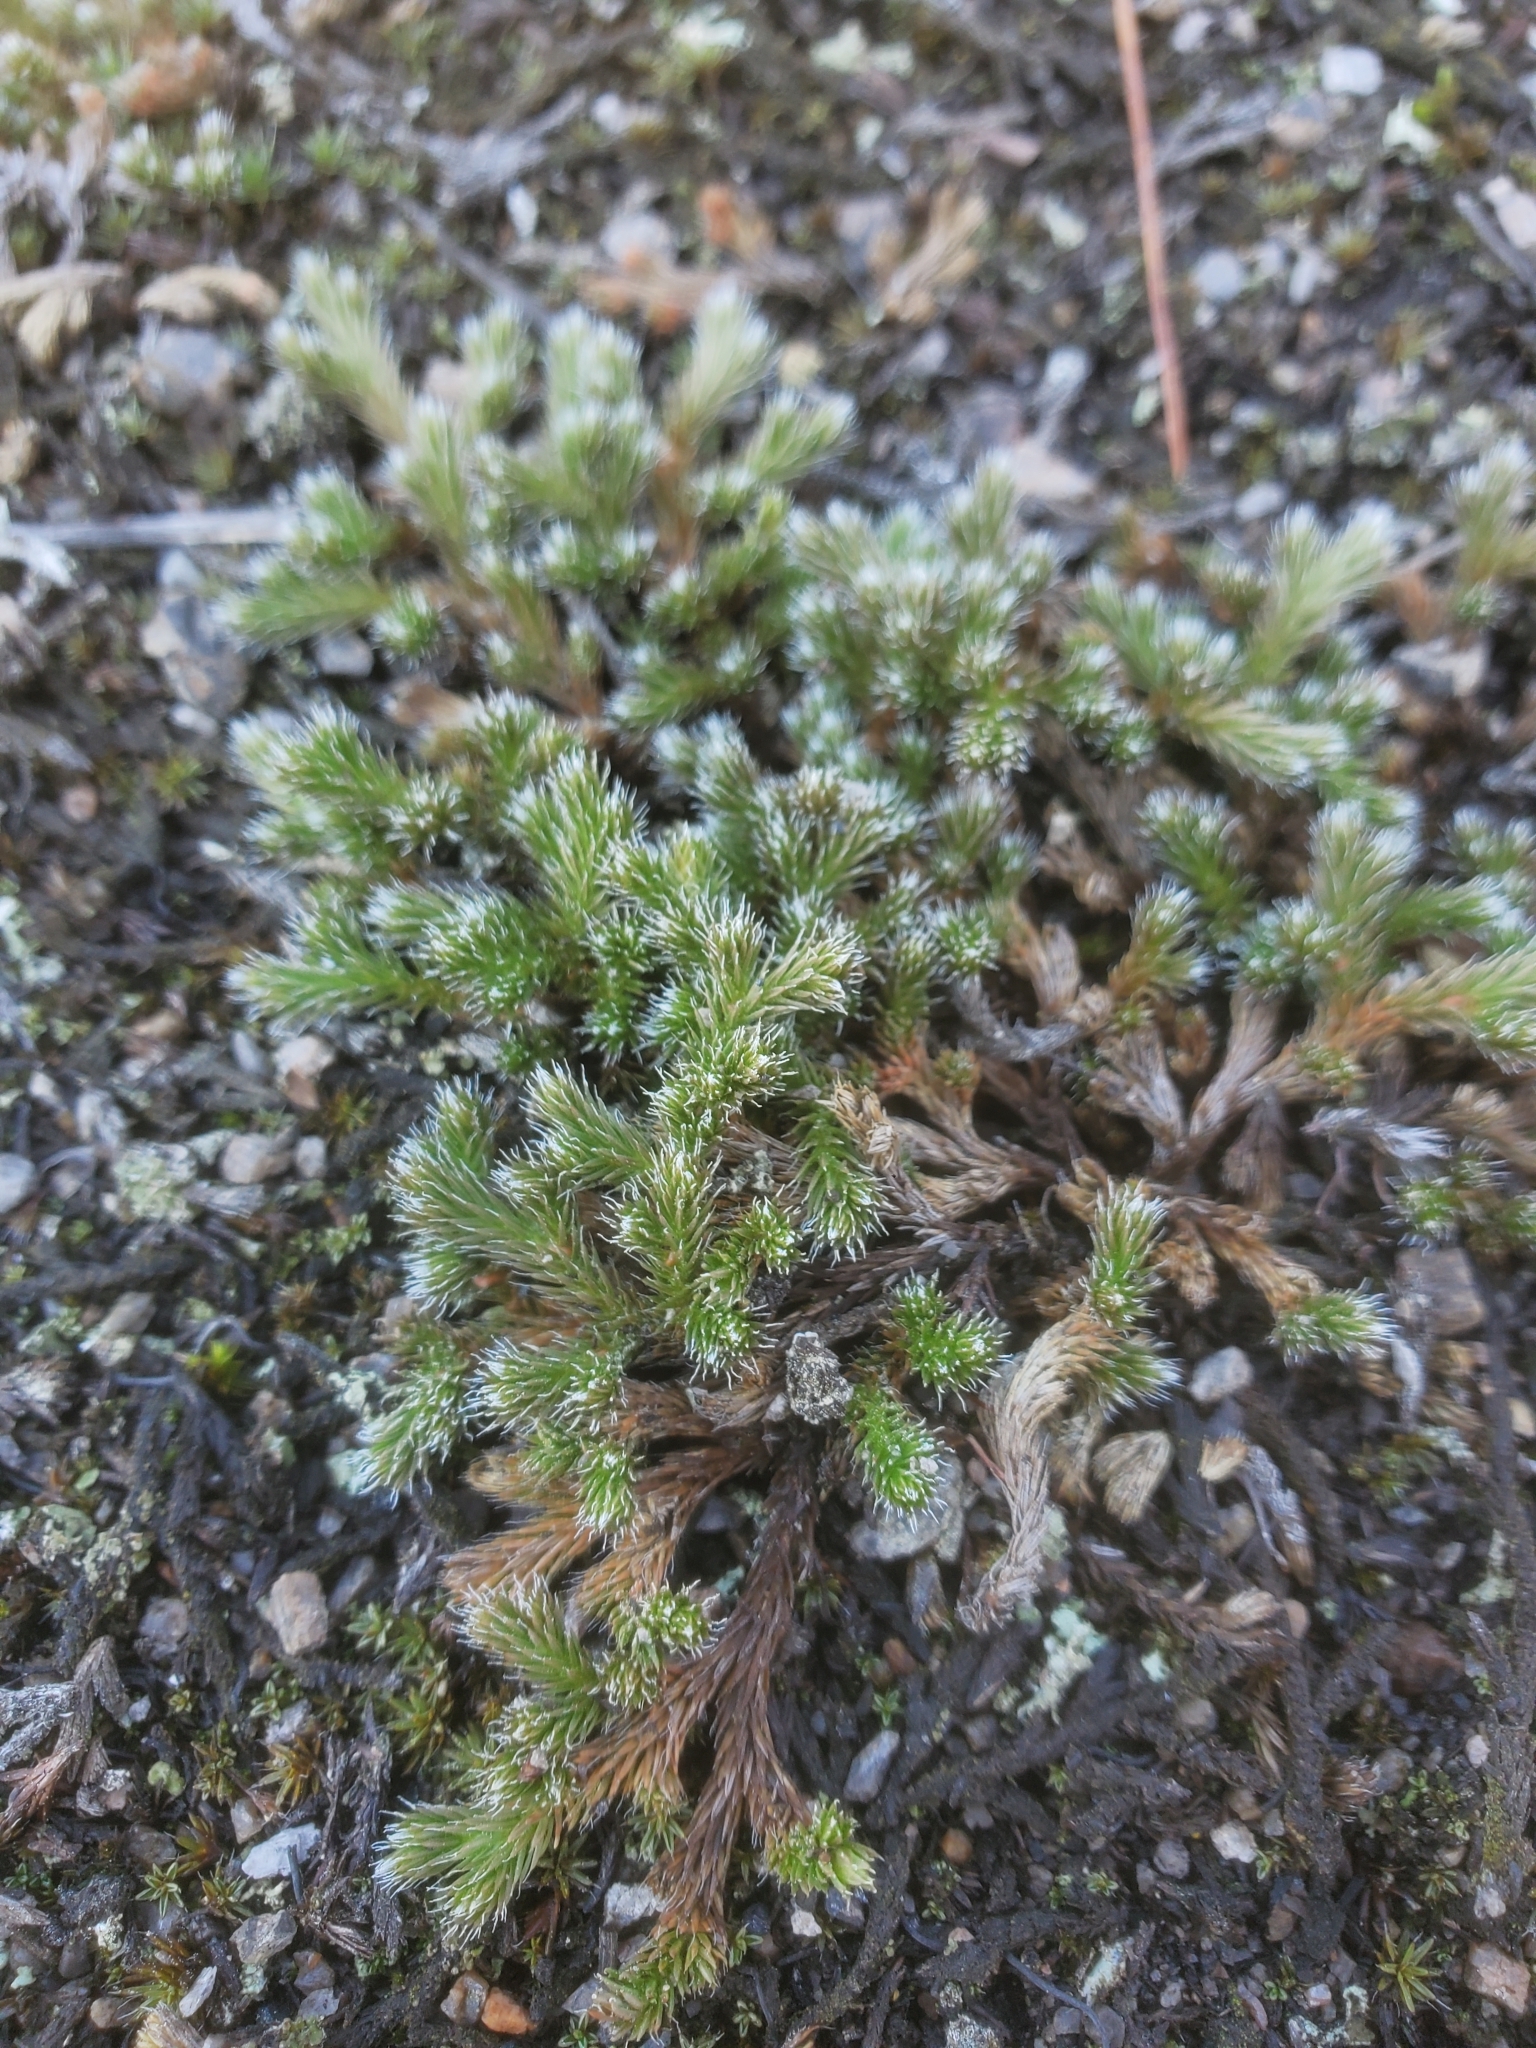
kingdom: Plantae
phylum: Tracheophyta
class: Lycopodiopsida
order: Selaginellales
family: Selaginellaceae
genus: Selaginella
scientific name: Selaginella rupestris
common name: Dwarf spikemoss
